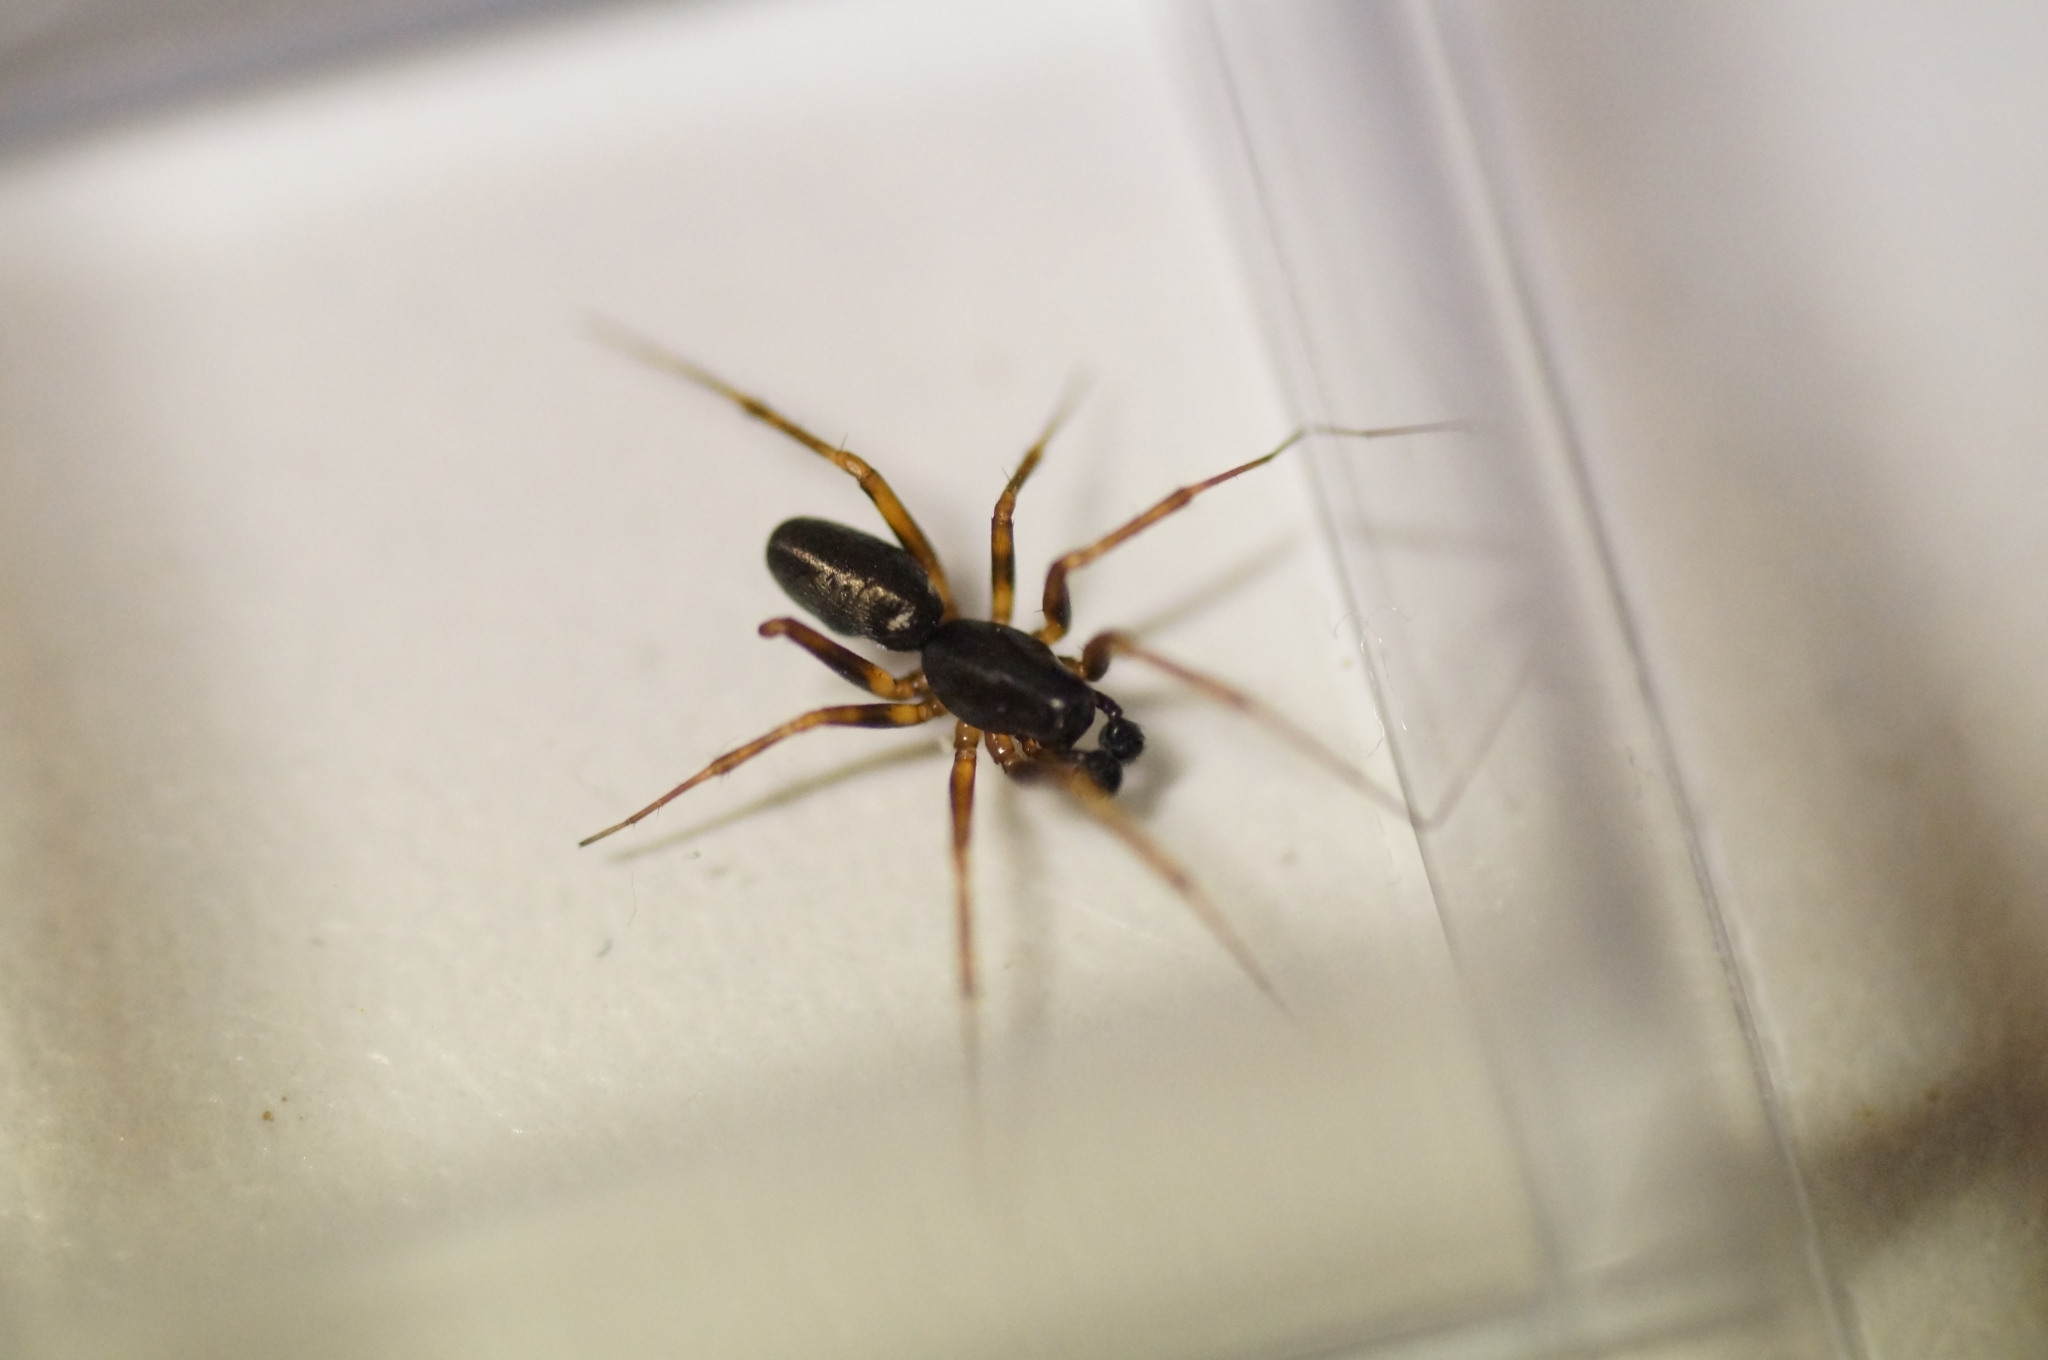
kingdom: Animalia
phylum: Arthropoda
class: Arachnida
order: Araneae
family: Linyphiidae
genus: Neriene
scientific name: Neriene clathrata
